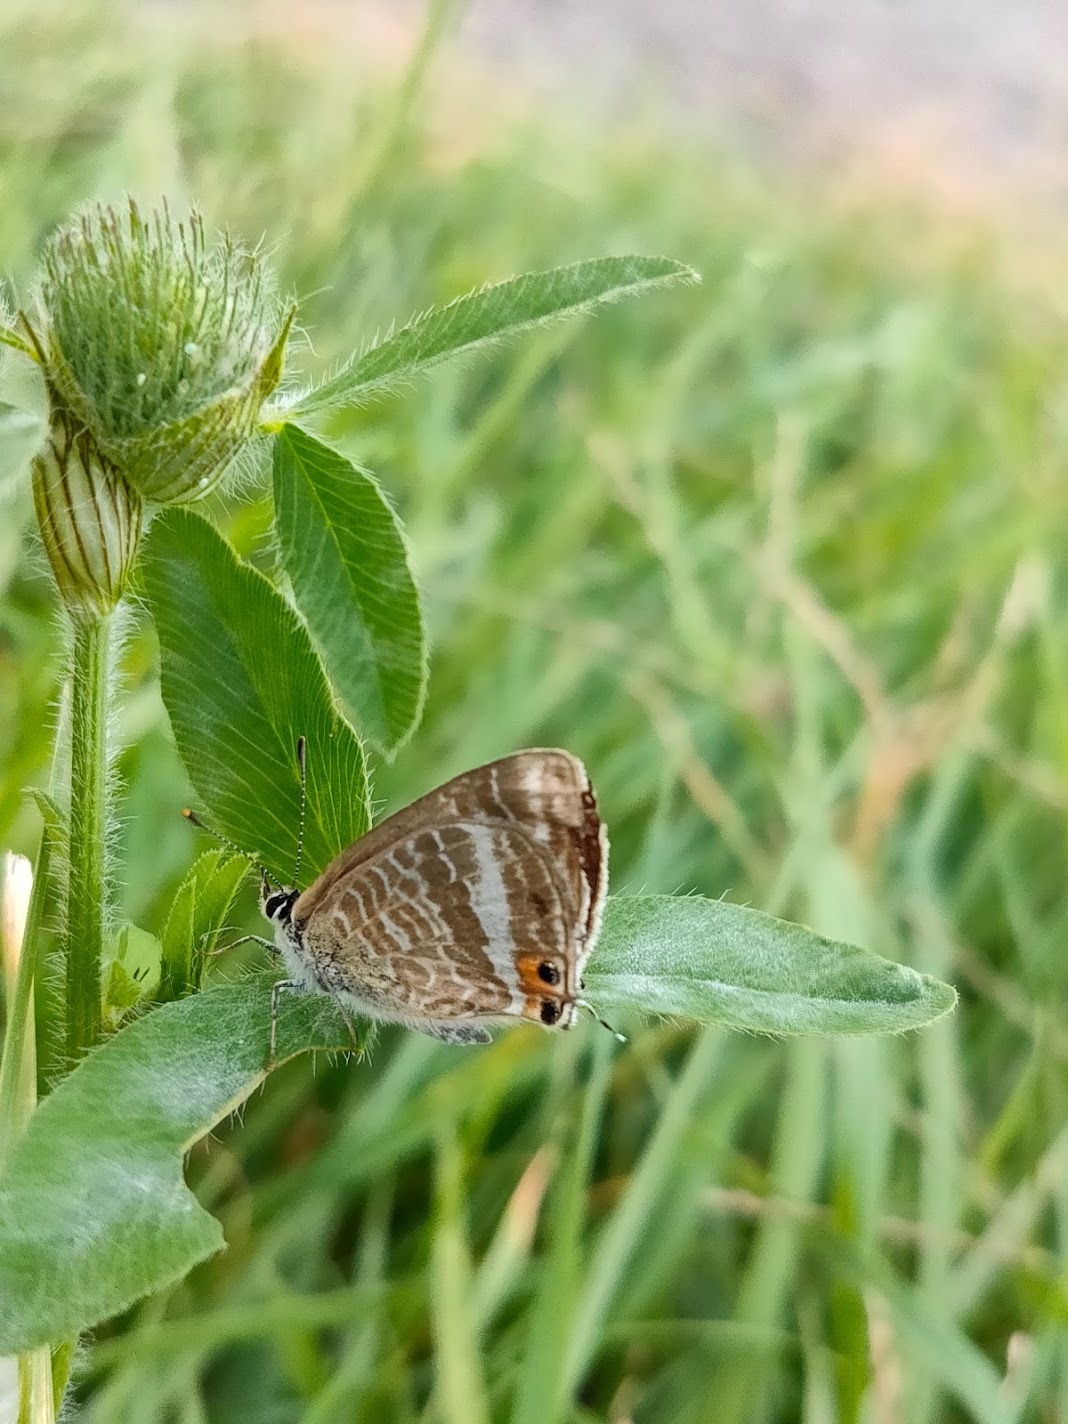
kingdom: Animalia
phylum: Arthropoda
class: Insecta
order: Lepidoptera
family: Lycaenidae
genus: Lampides
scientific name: Lampides boeticus
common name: Long-tailed blue
